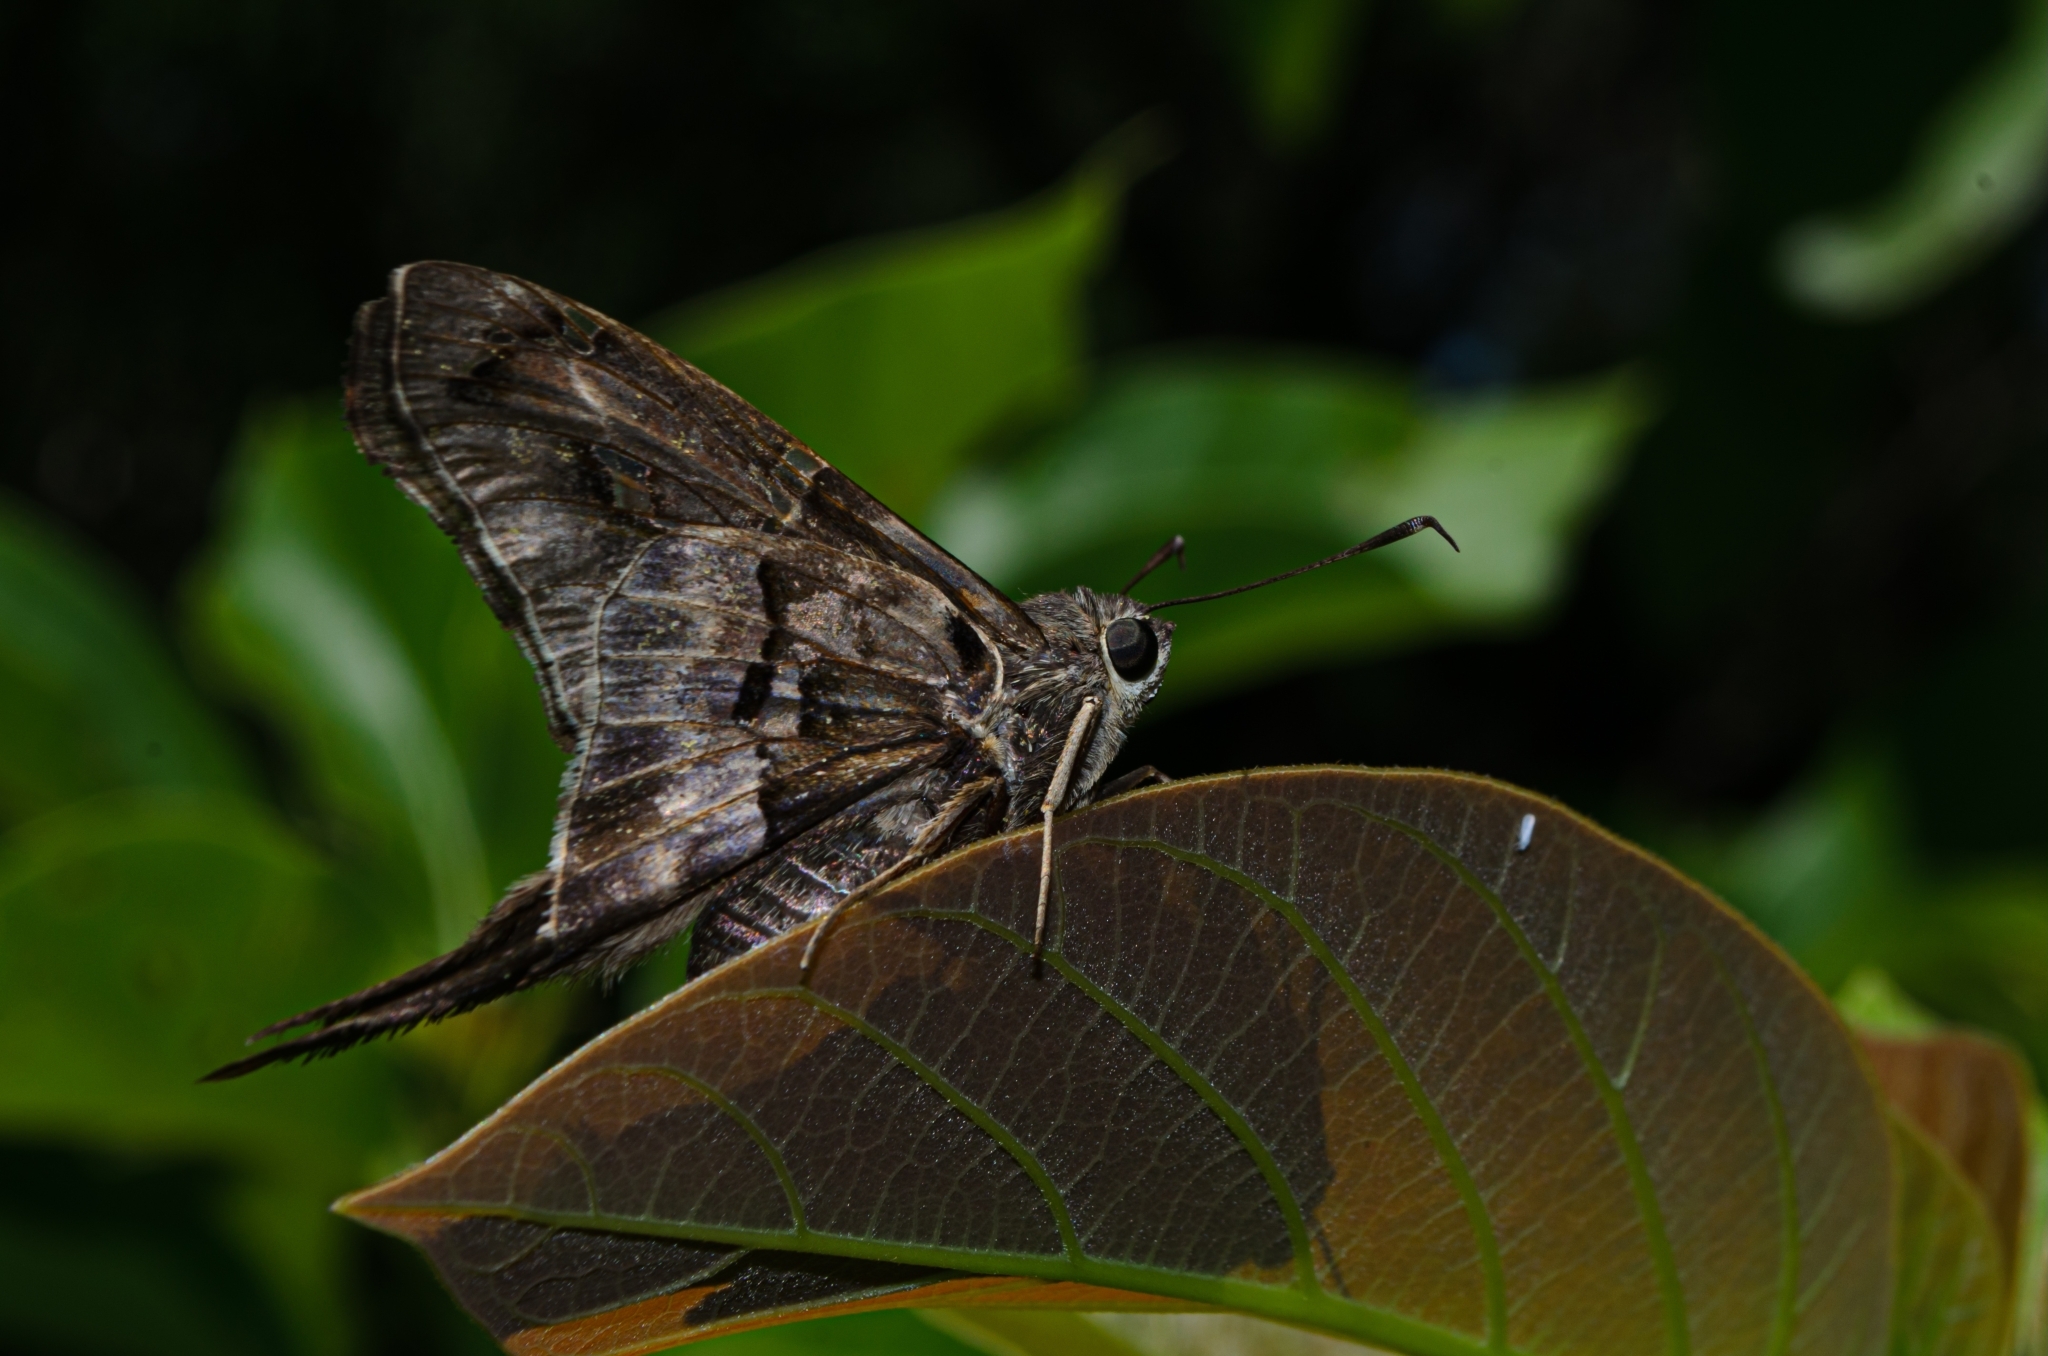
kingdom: Animalia
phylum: Arthropoda
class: Insecta
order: Lepidoptera
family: Hesperiidae
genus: Aguna
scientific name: Aguna megaeles
